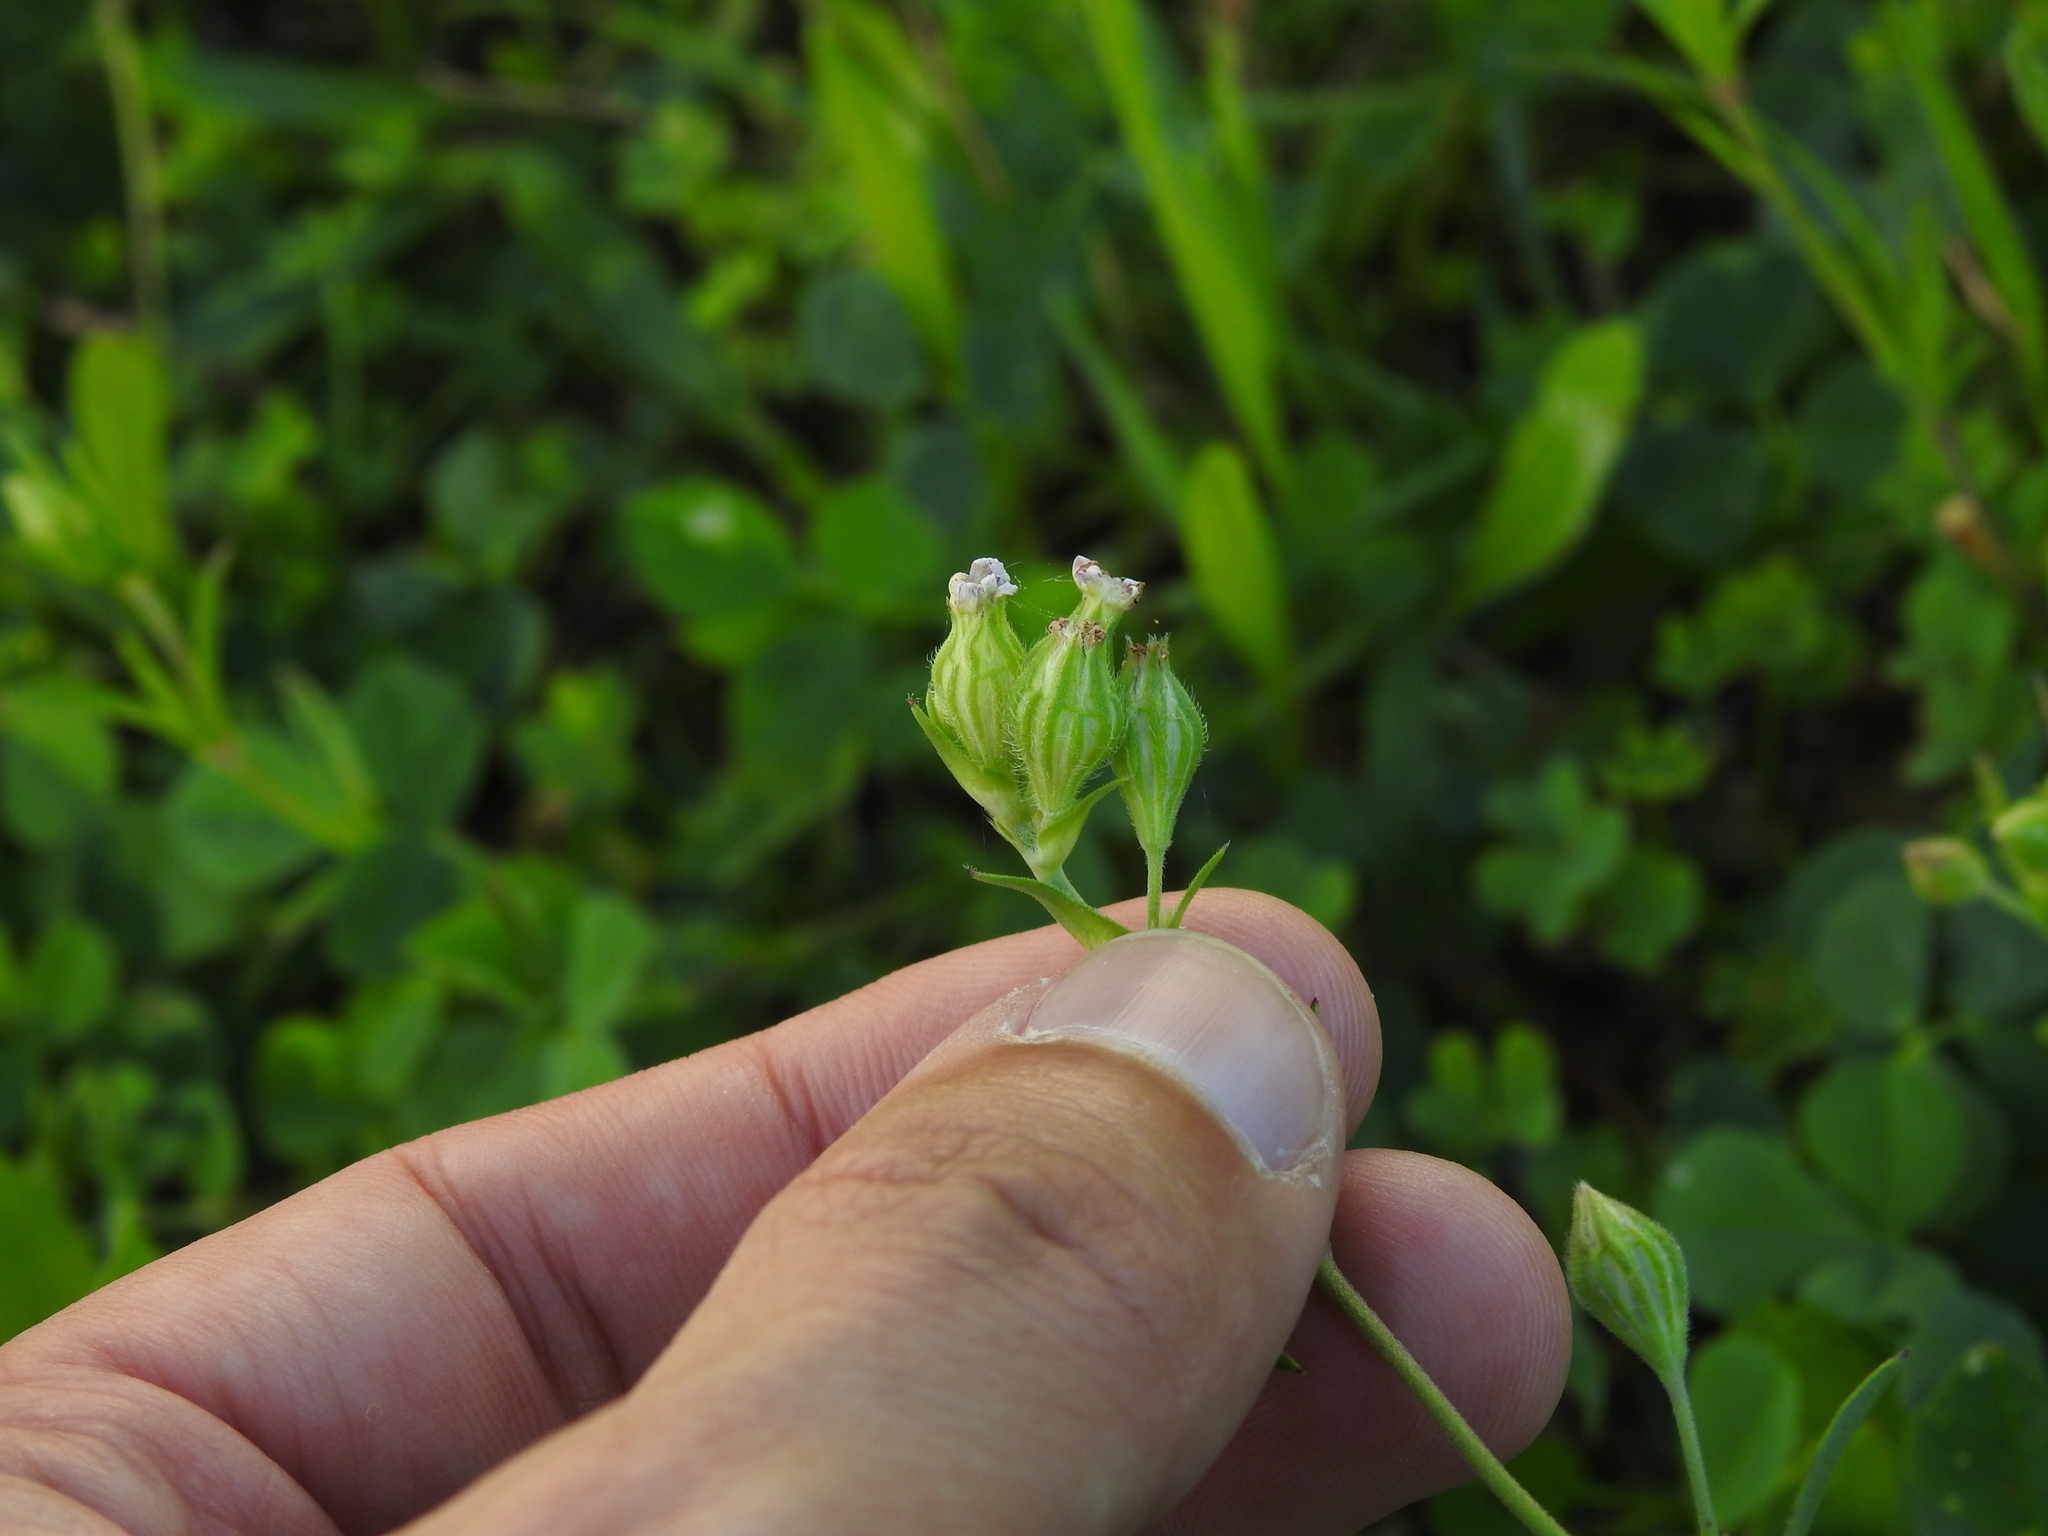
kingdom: Plantae
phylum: Tracheophyta
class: Magnoliopsida
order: Caryophyllales
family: Caryophyllaceae
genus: Silene
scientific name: Silene apetala
